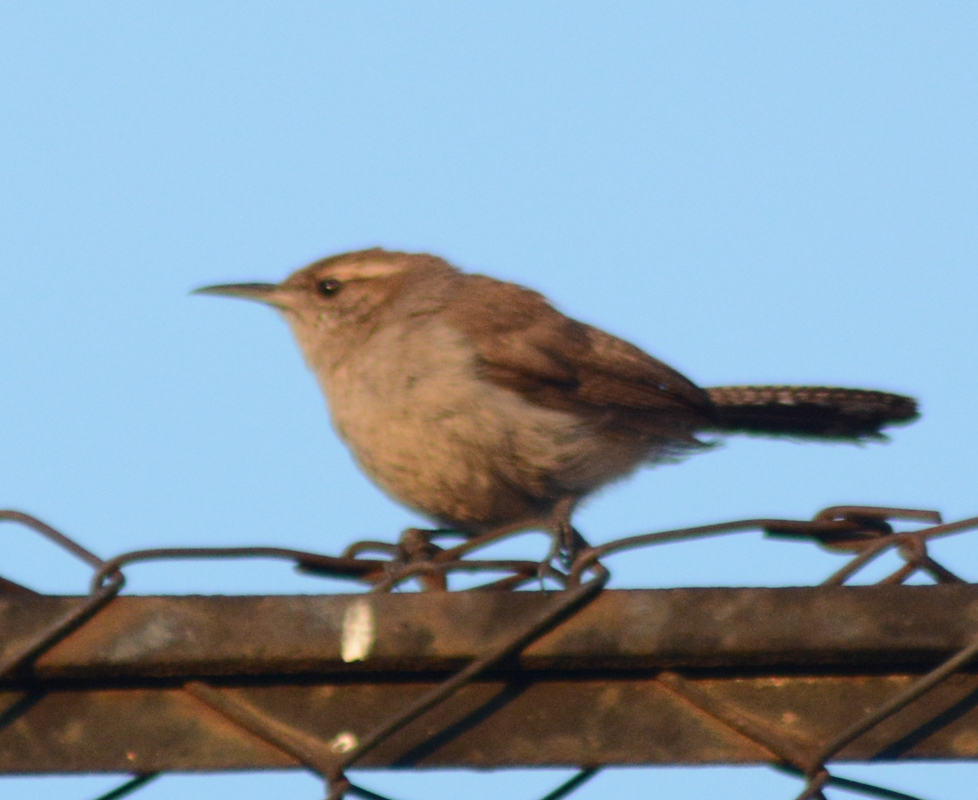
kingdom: Animalia
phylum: Chordata
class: Aves
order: Passeriformes
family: Troglodytidae
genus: Thryomanes
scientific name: Thryomanes bewickii
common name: Bewick's wren
